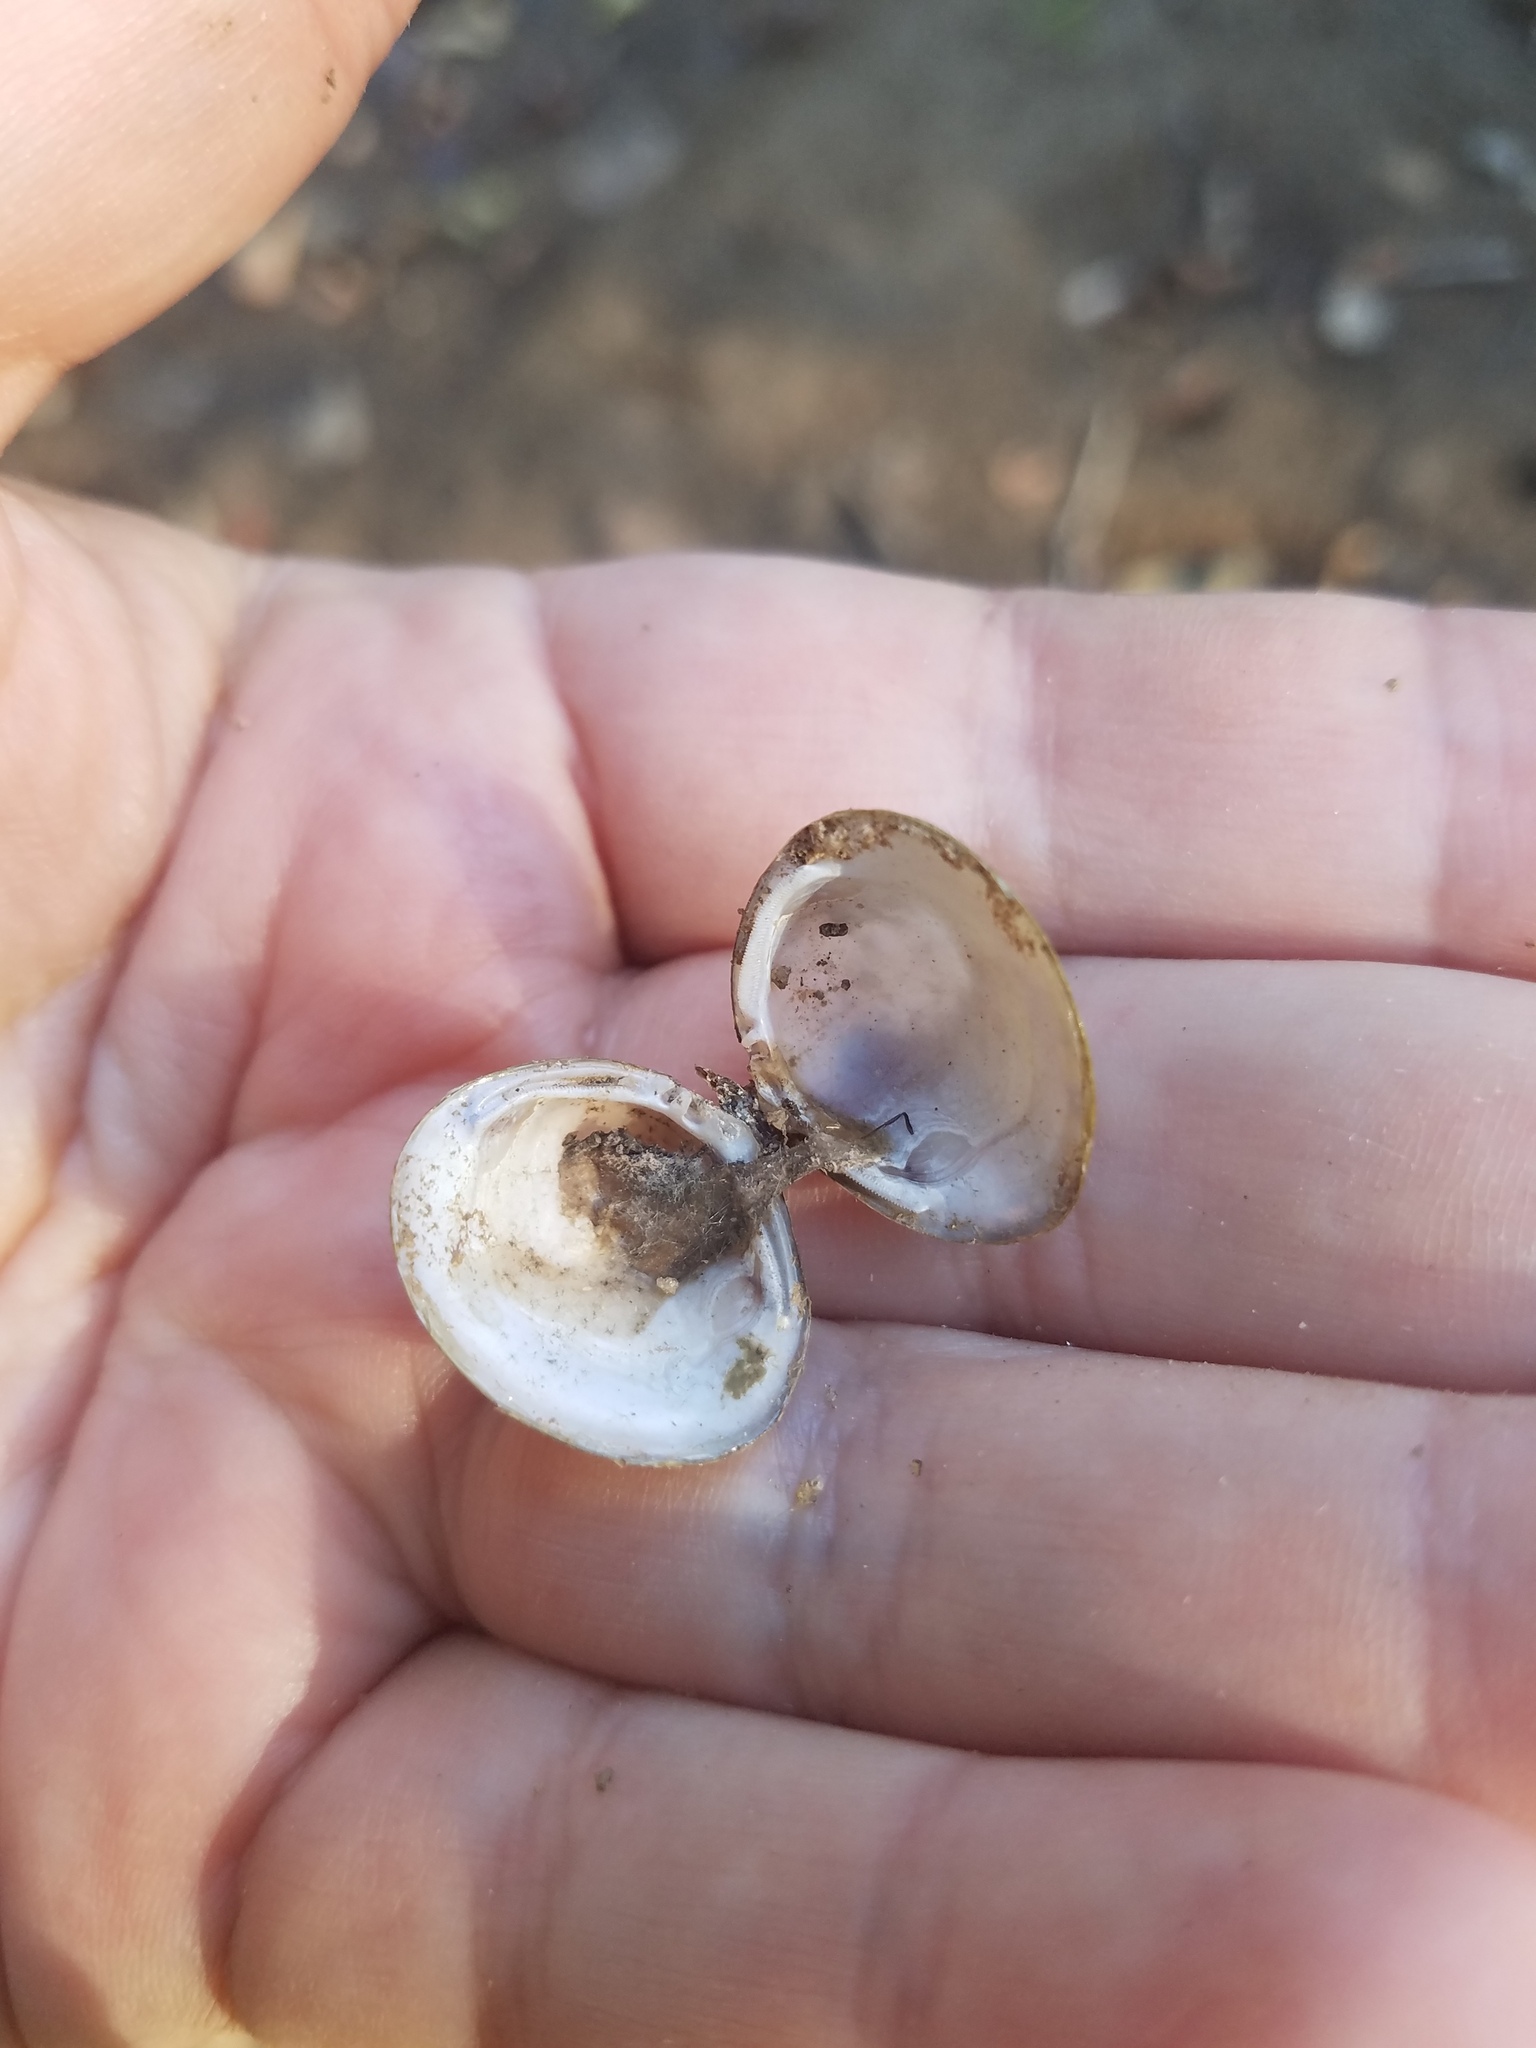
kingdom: Animalia
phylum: Mollusca
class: Bivalvia
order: Venerida
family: Cyrenidae
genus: Corbicula
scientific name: Corbicula fluminea
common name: Asian clam
